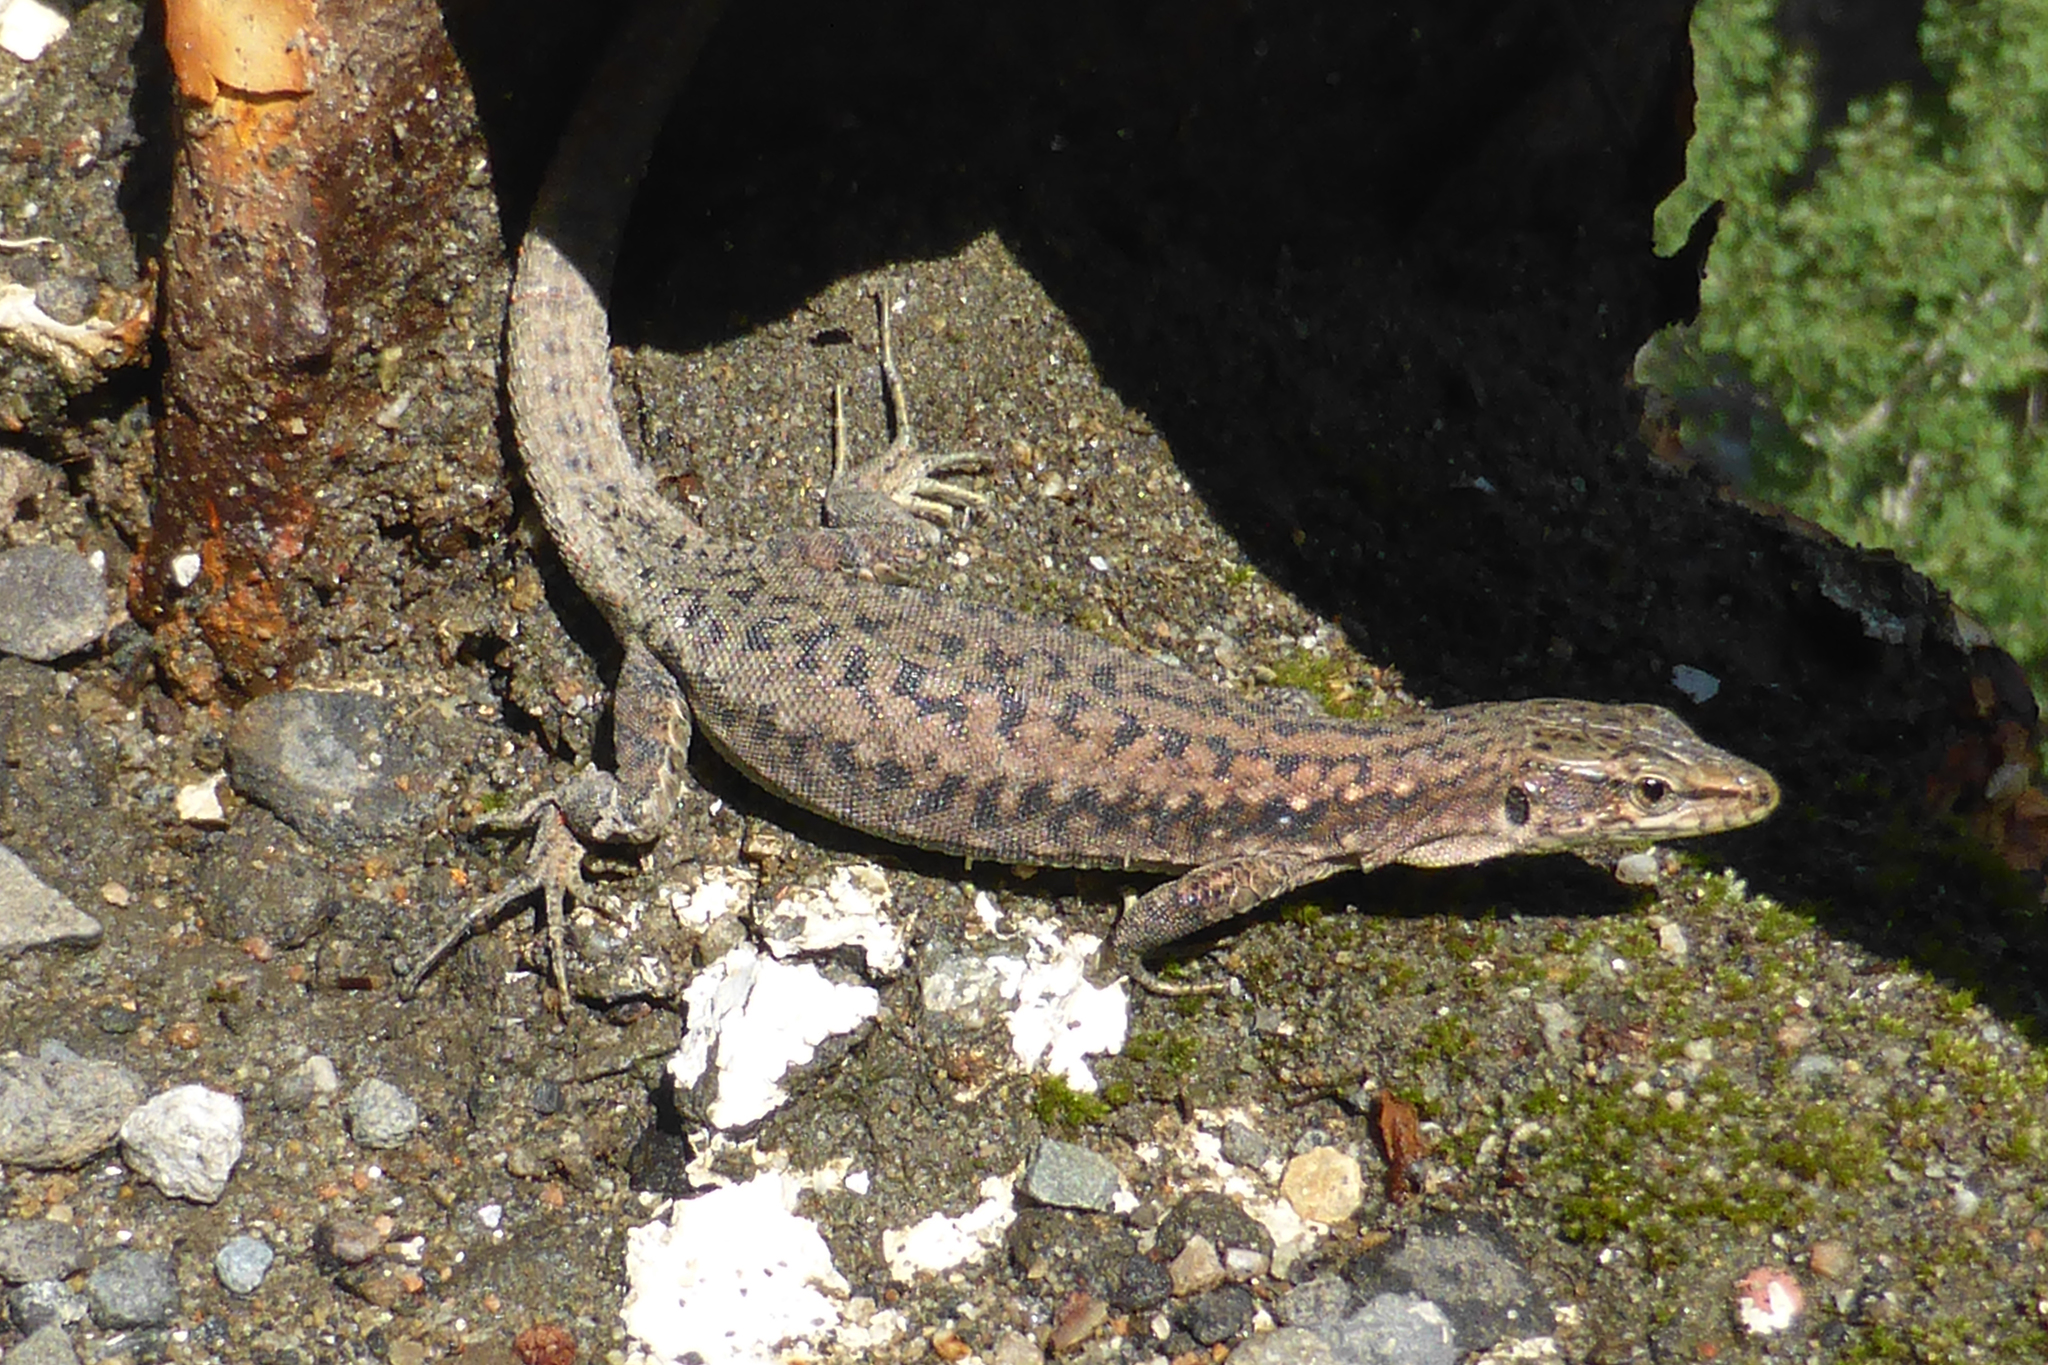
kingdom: Animalia
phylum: Chordata
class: Squamata
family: Lacertidae
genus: Darevskia
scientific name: Darevskia brauneri
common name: Brauner's rock lizard
